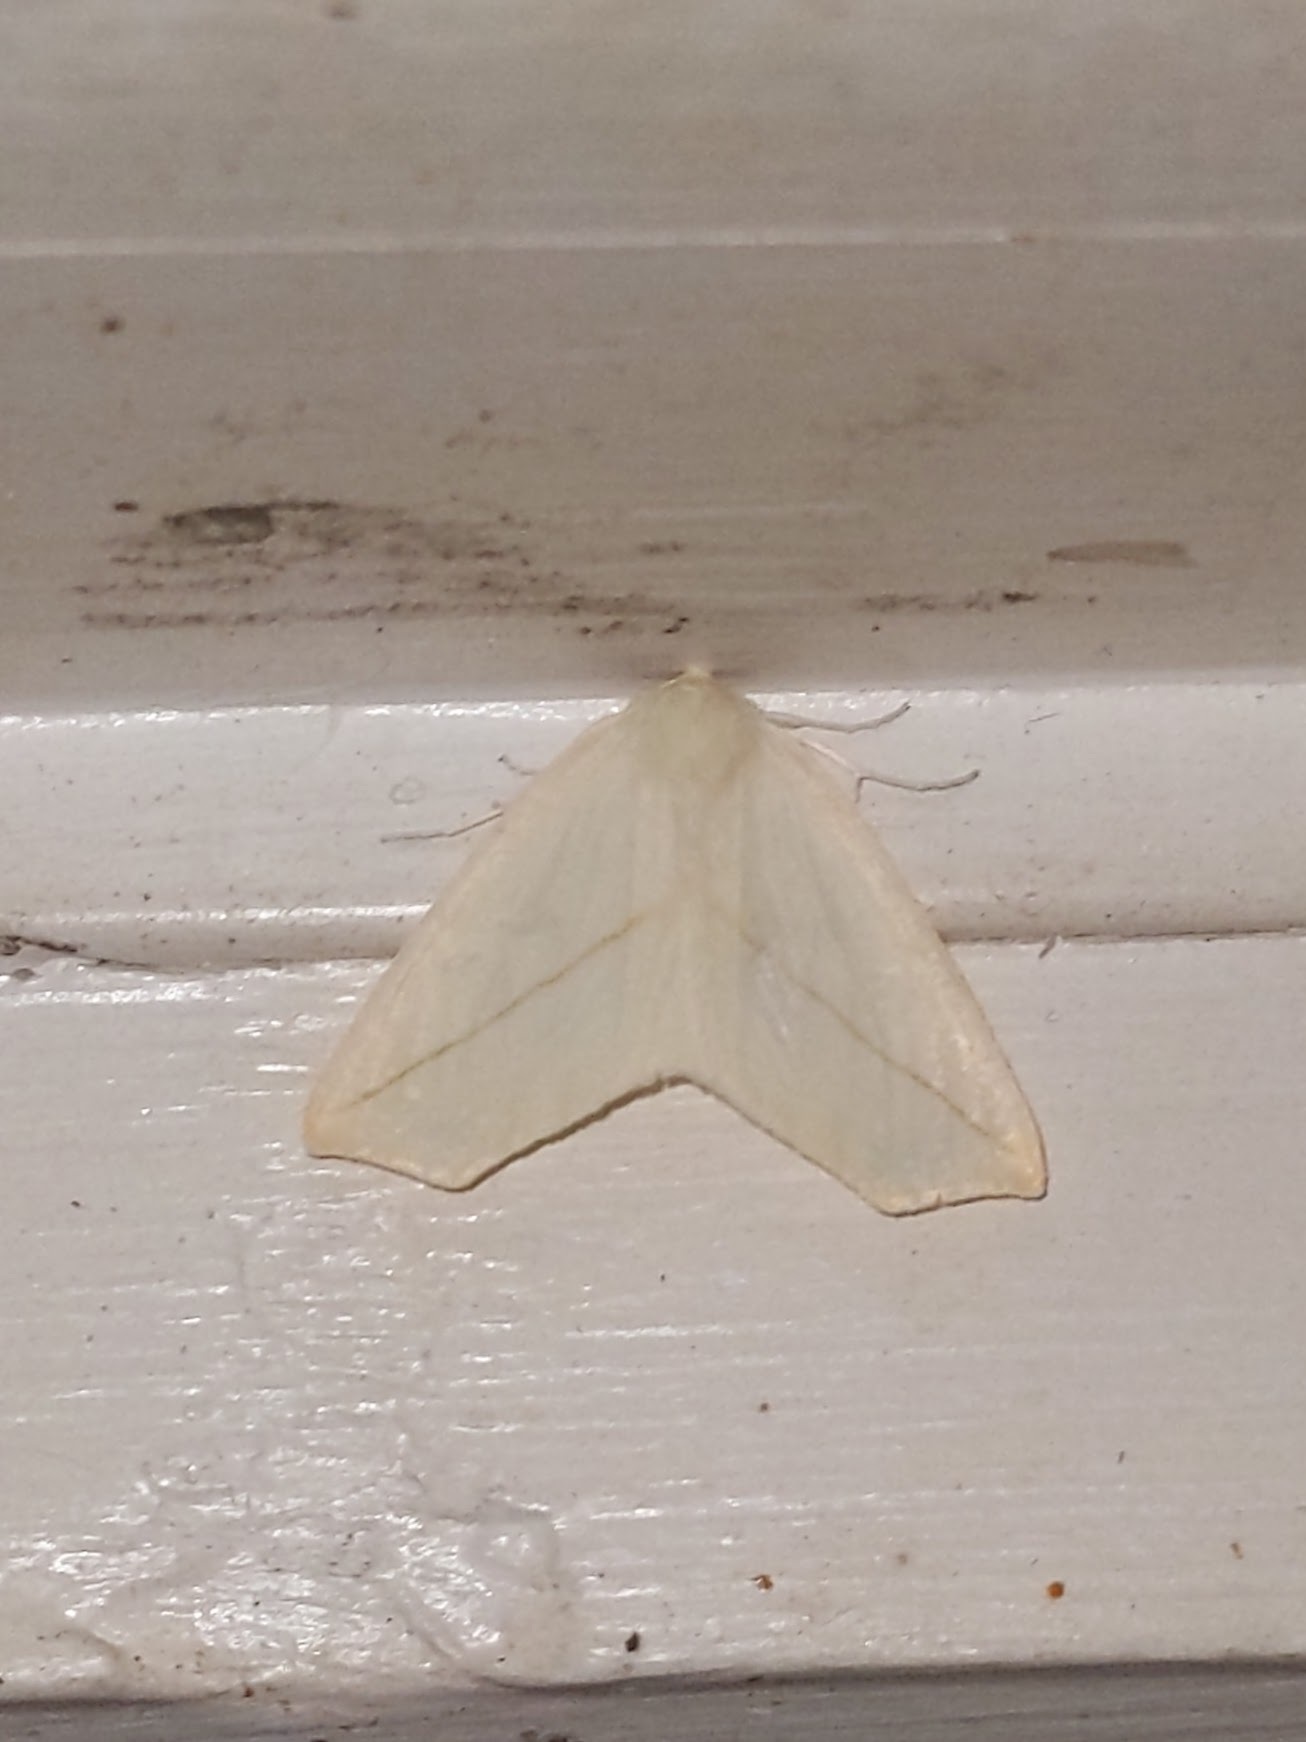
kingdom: Animalia
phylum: Arthropoda
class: Insecta
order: Lepidoptera
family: Geometridae
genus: Tetracis
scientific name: Tetracis cachexiata
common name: White slant-line
